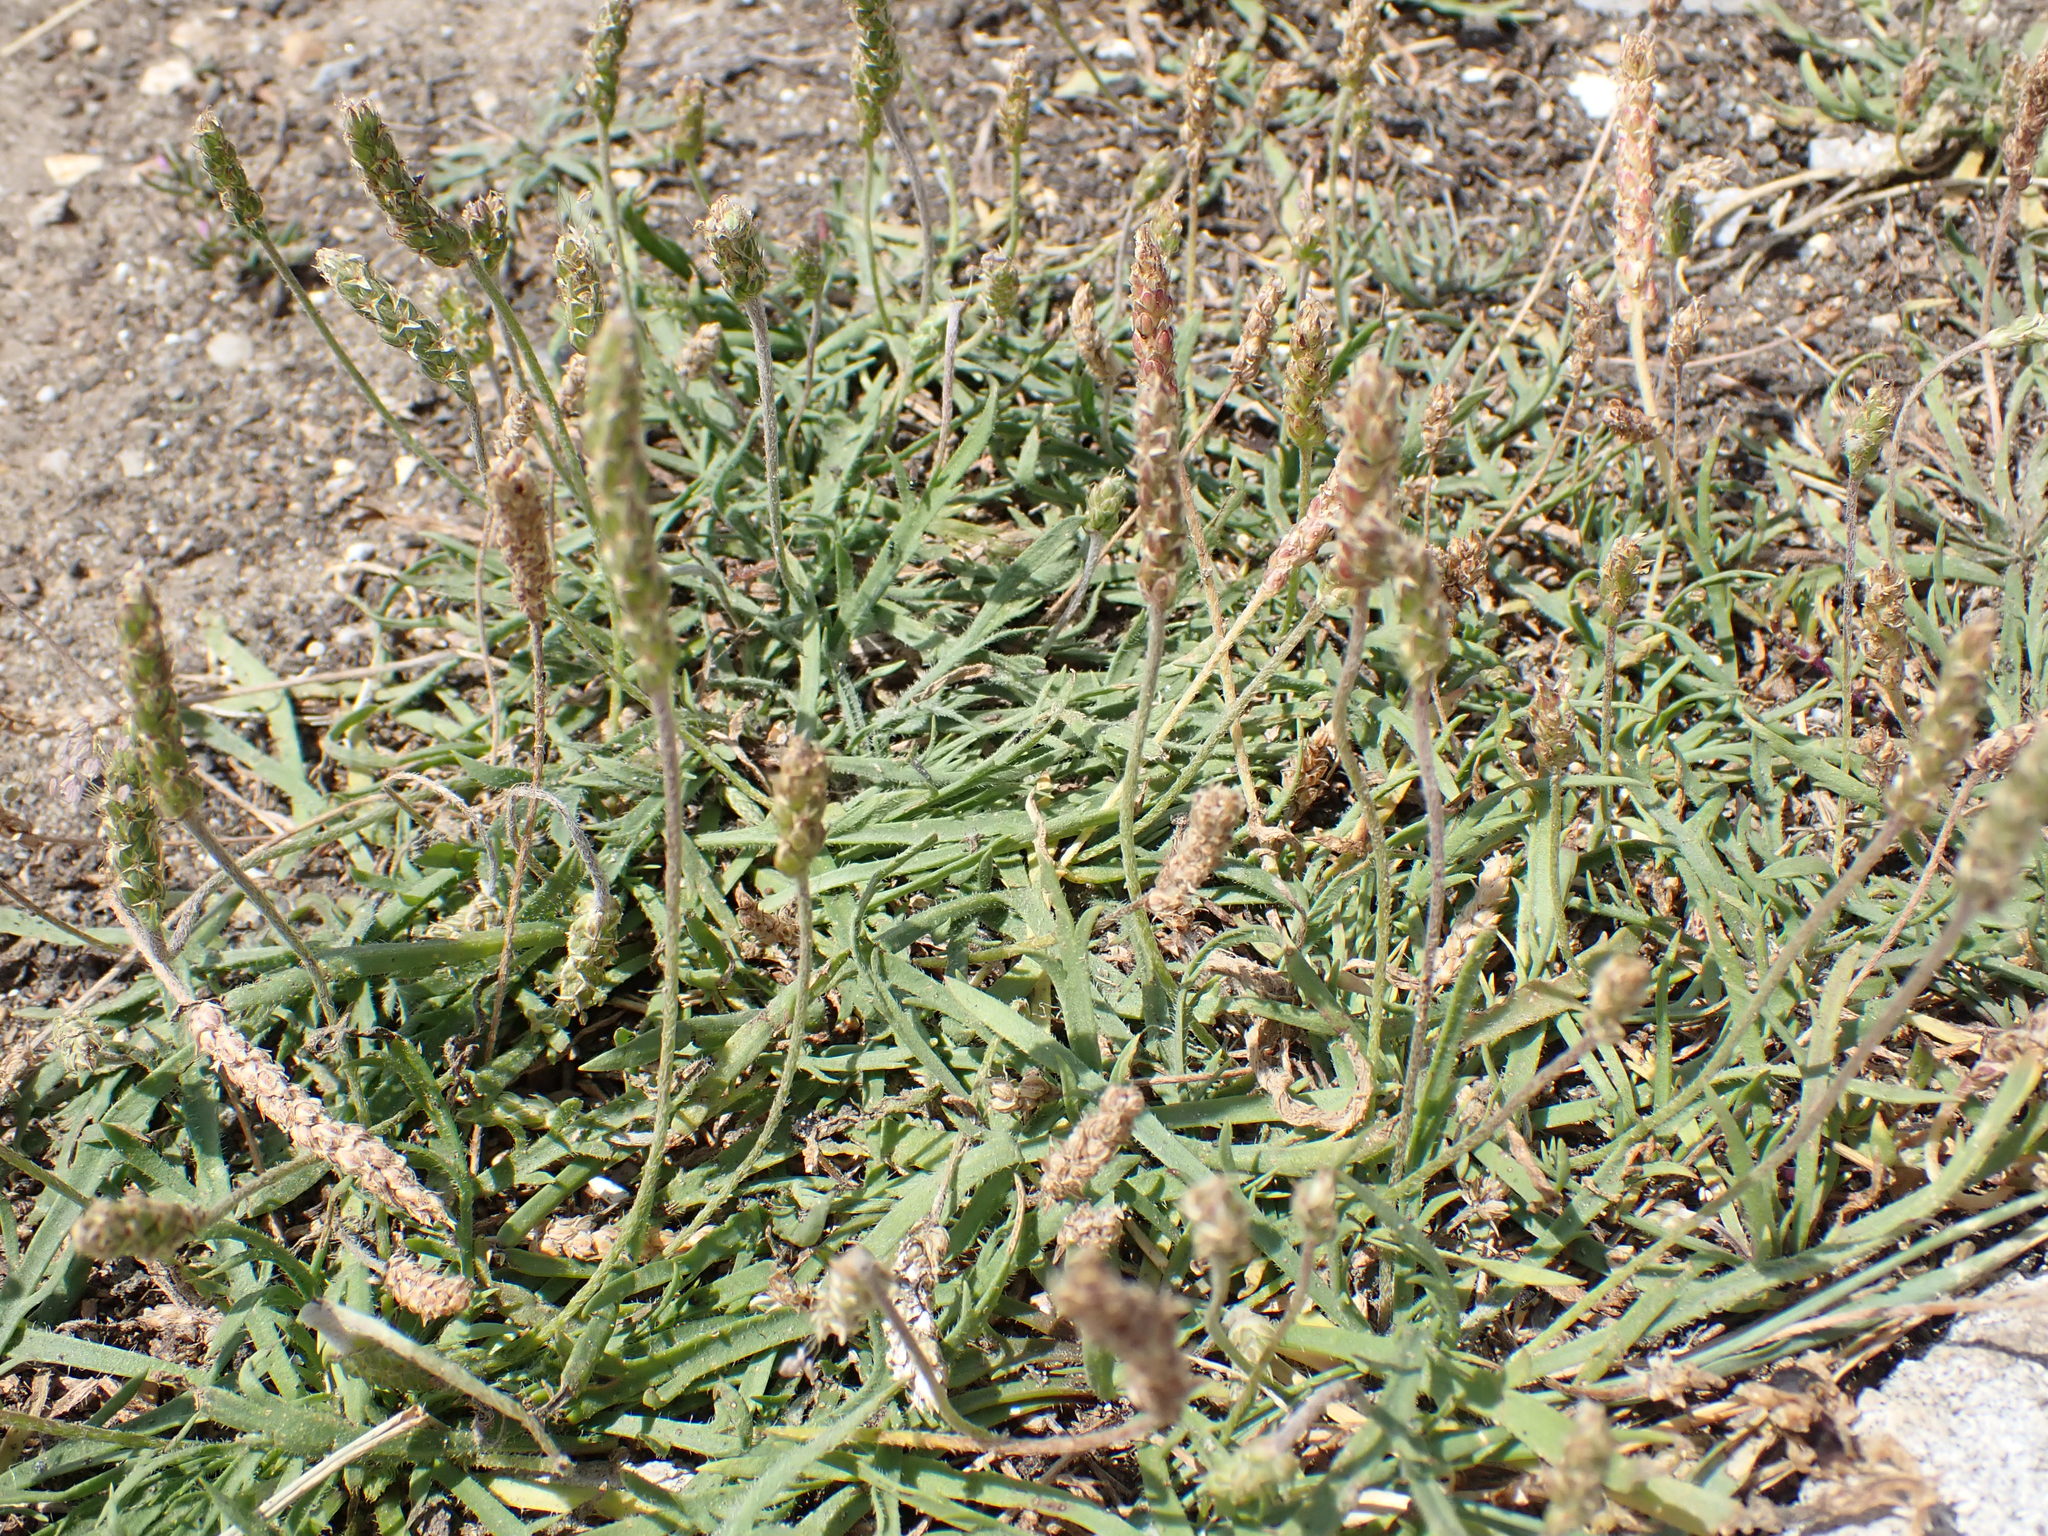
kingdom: Plantae
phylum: Tracheophyta
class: Magnoliopsida
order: Lamiales
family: Plantaginaceae
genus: Plantago
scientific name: Plantago coronopus
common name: Buck's-horn plantain
